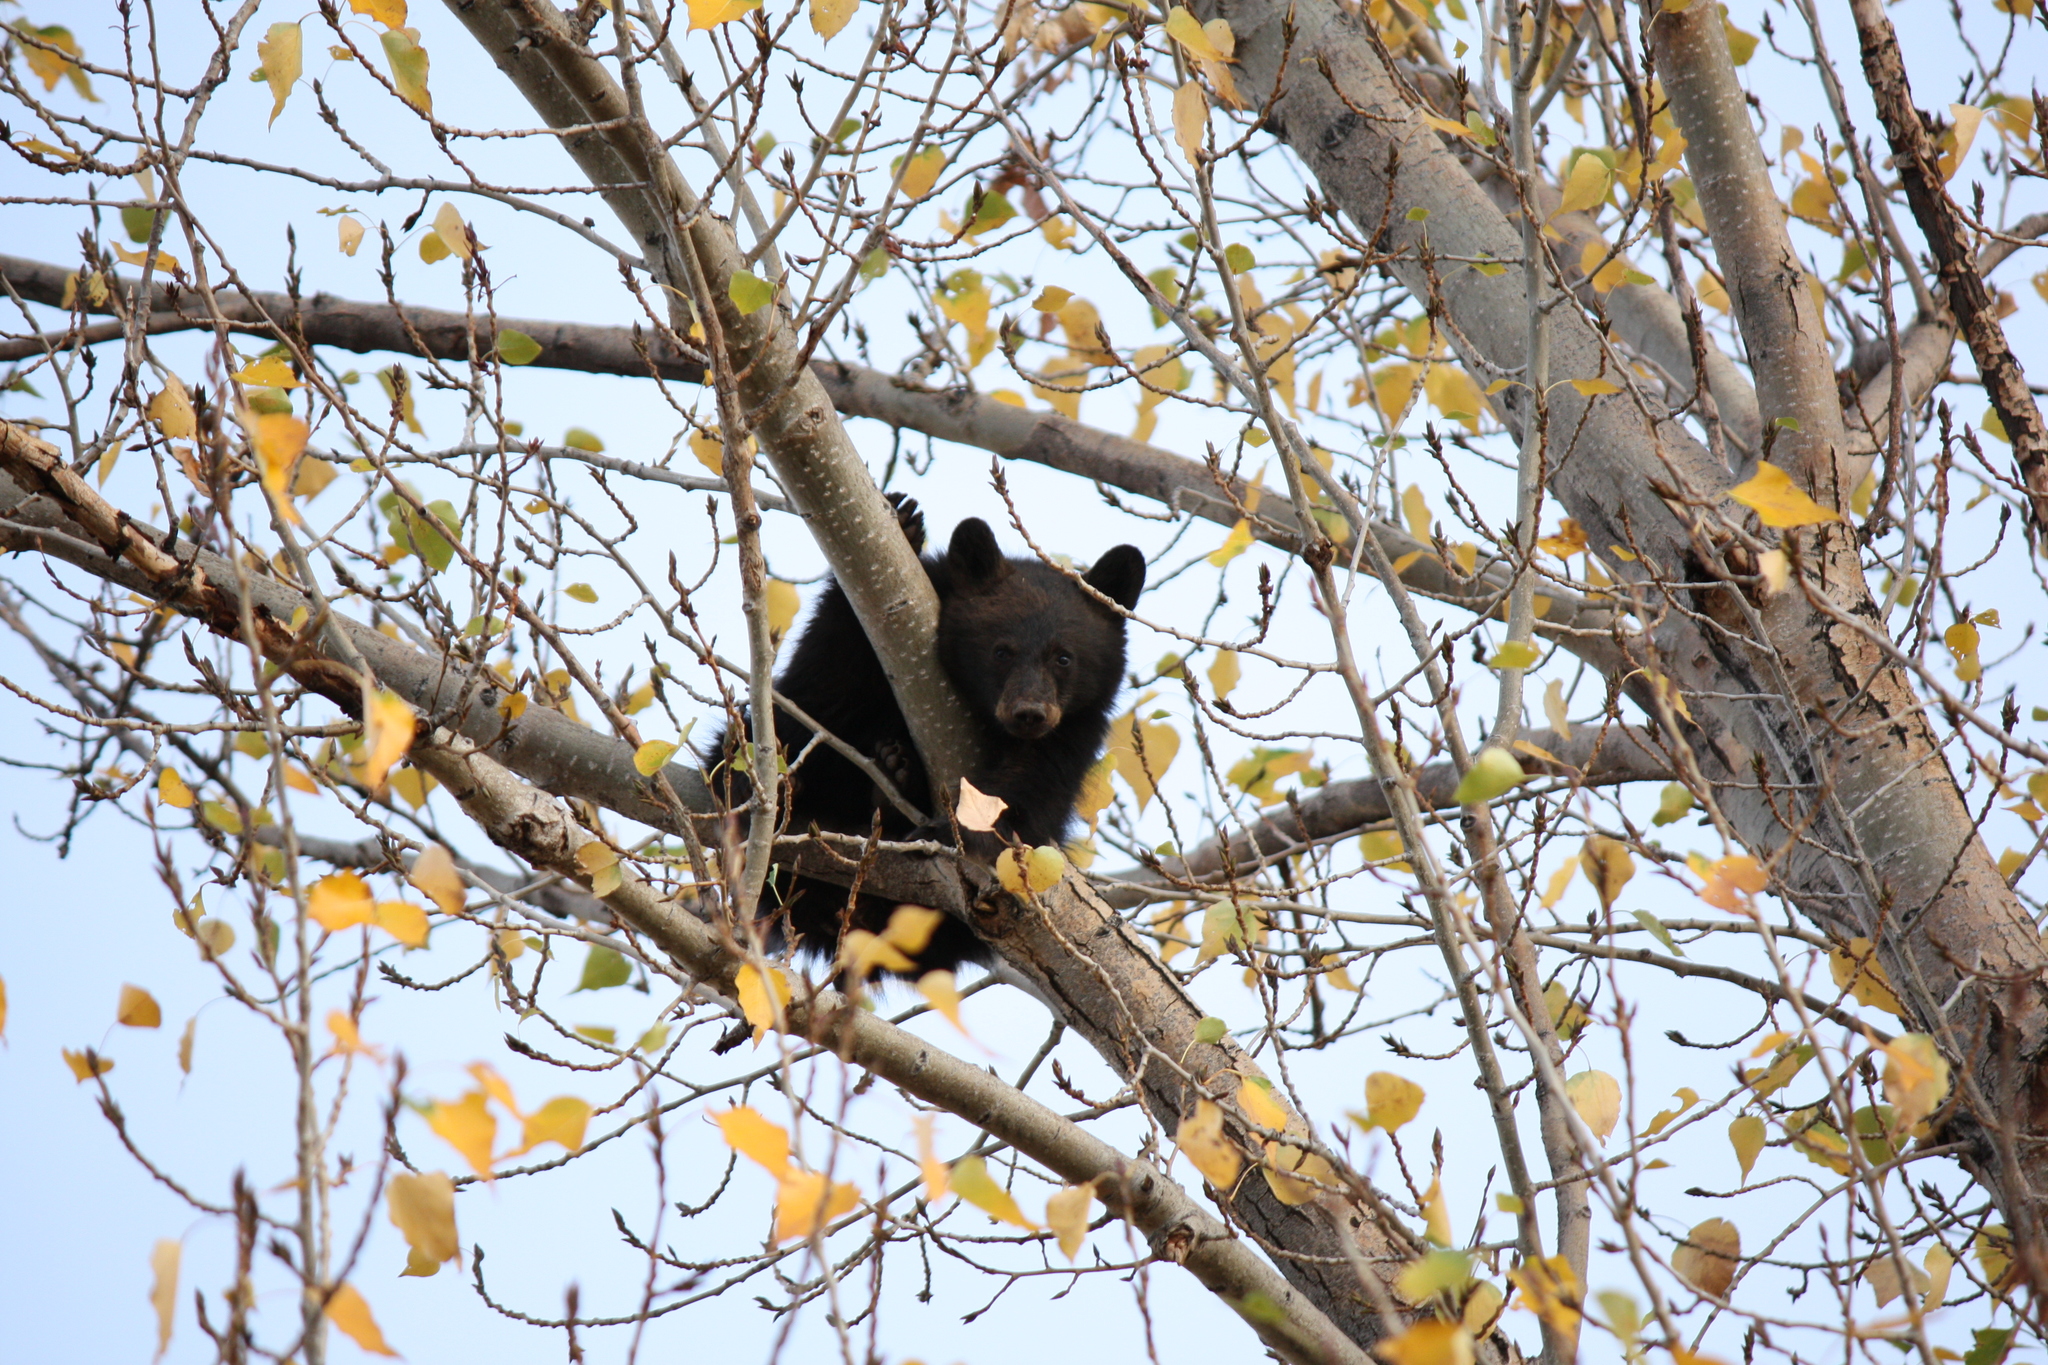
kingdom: Animalia
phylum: Chordata
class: Mammalia
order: Carnivora
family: Ursidae
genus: Ursus
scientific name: Ursus americanus
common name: American black bear
